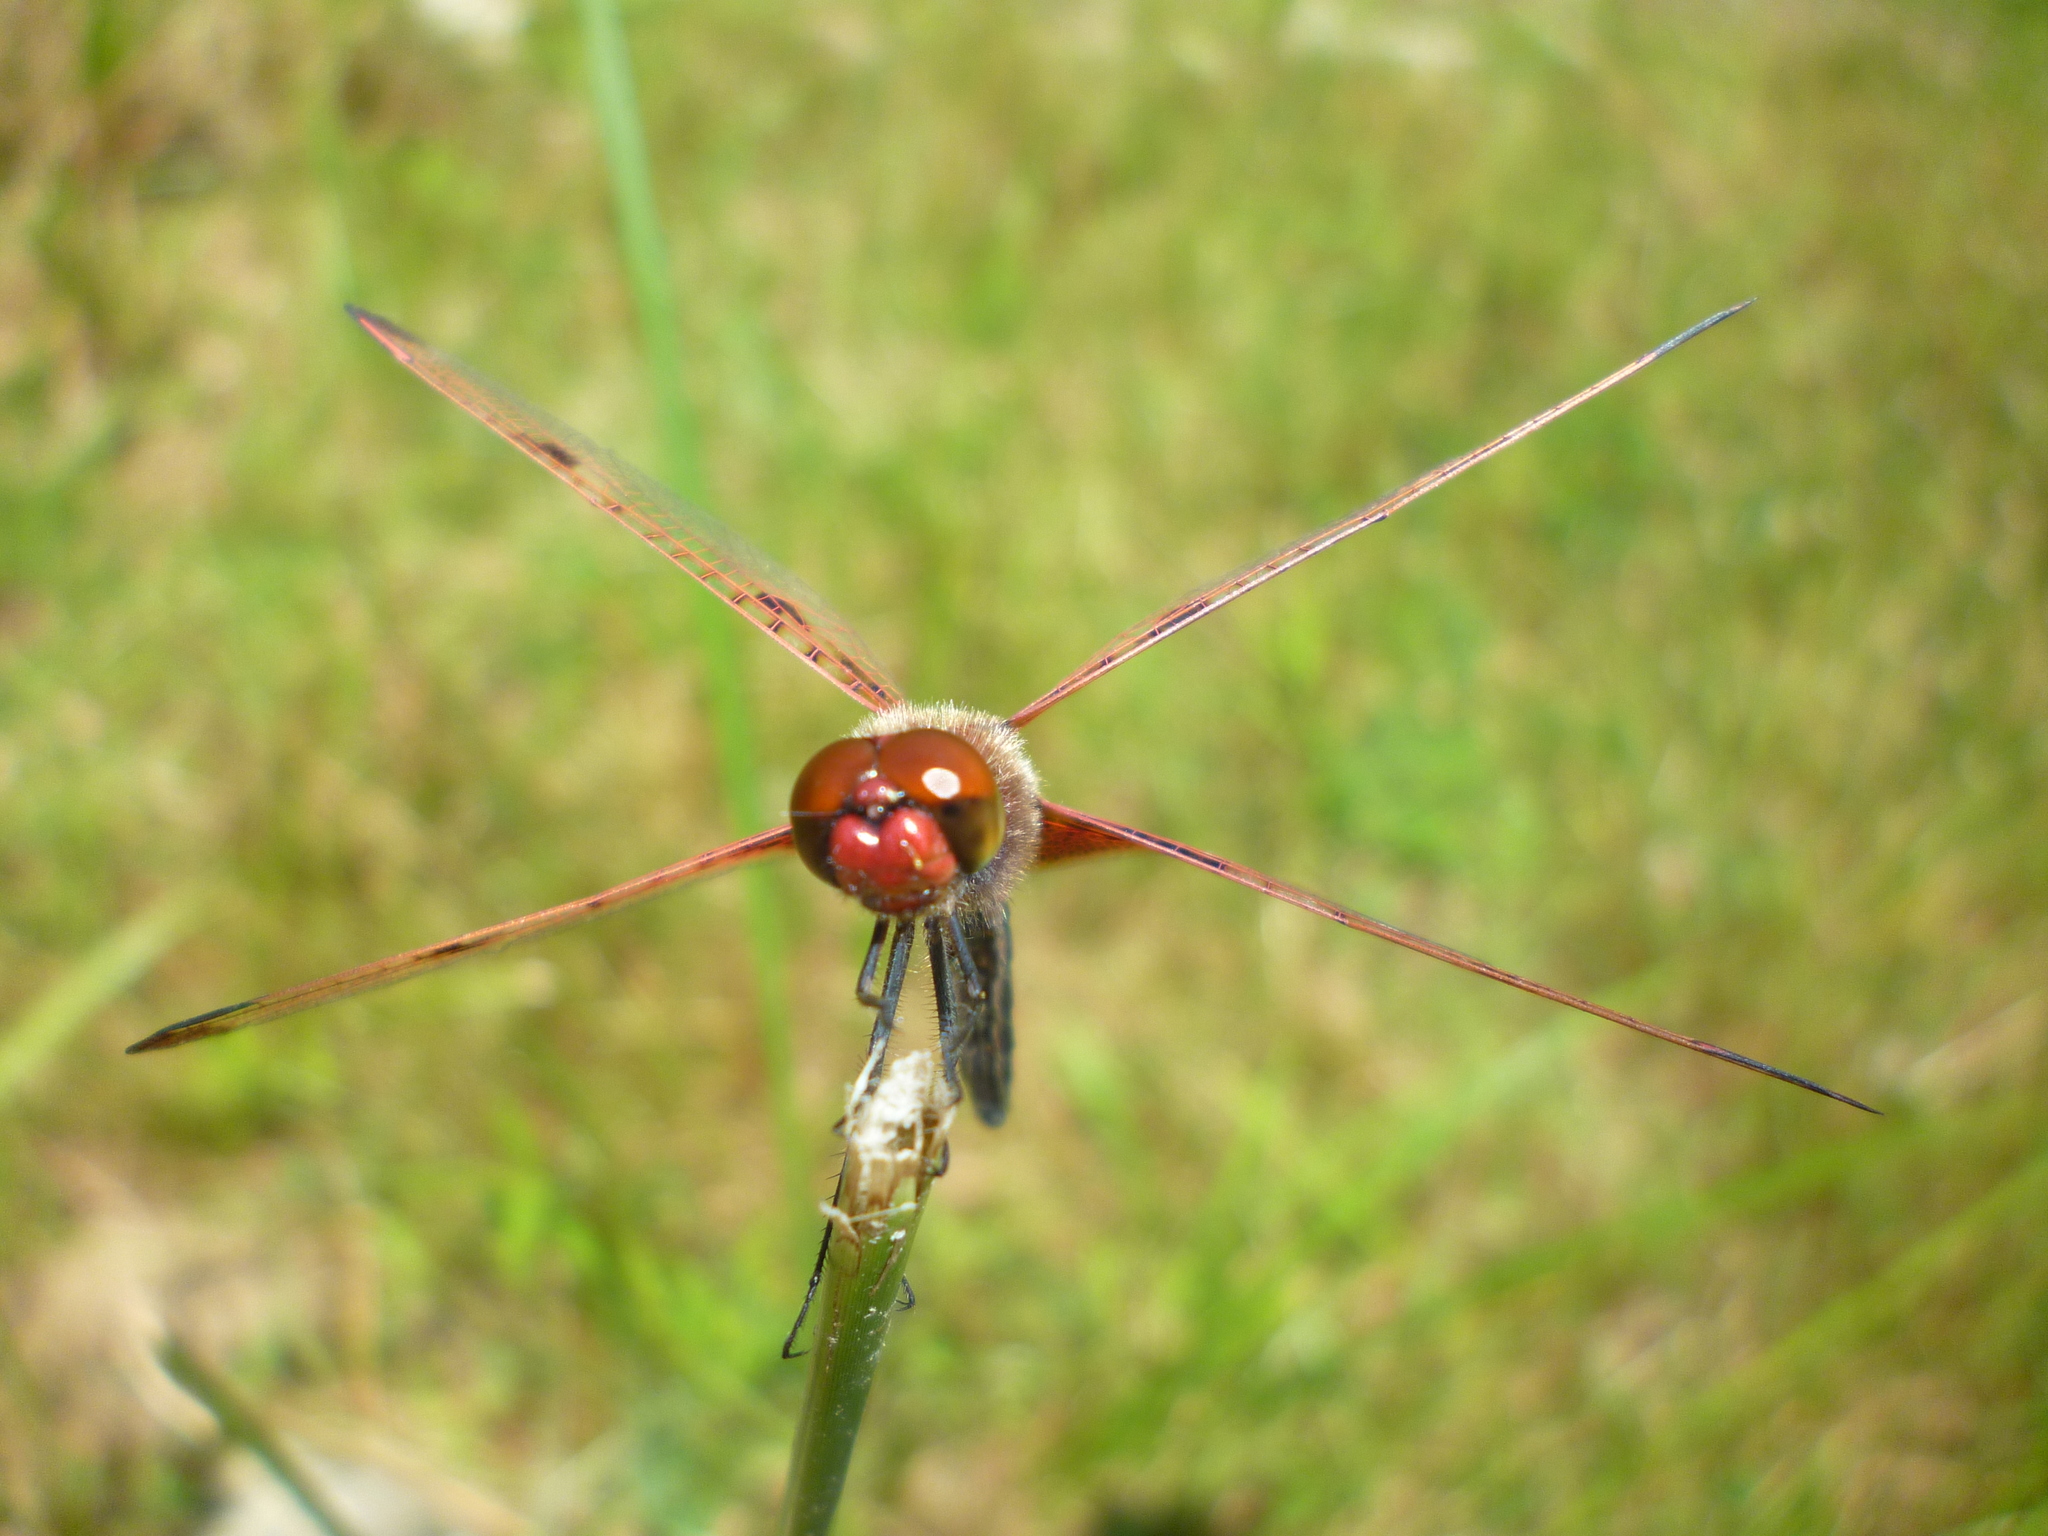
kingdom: Animalia
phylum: Arthropoda
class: Insecta
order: Odonata
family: Libellulidae
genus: Celithemis
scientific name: Celithemis elisa
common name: Calico pennant
